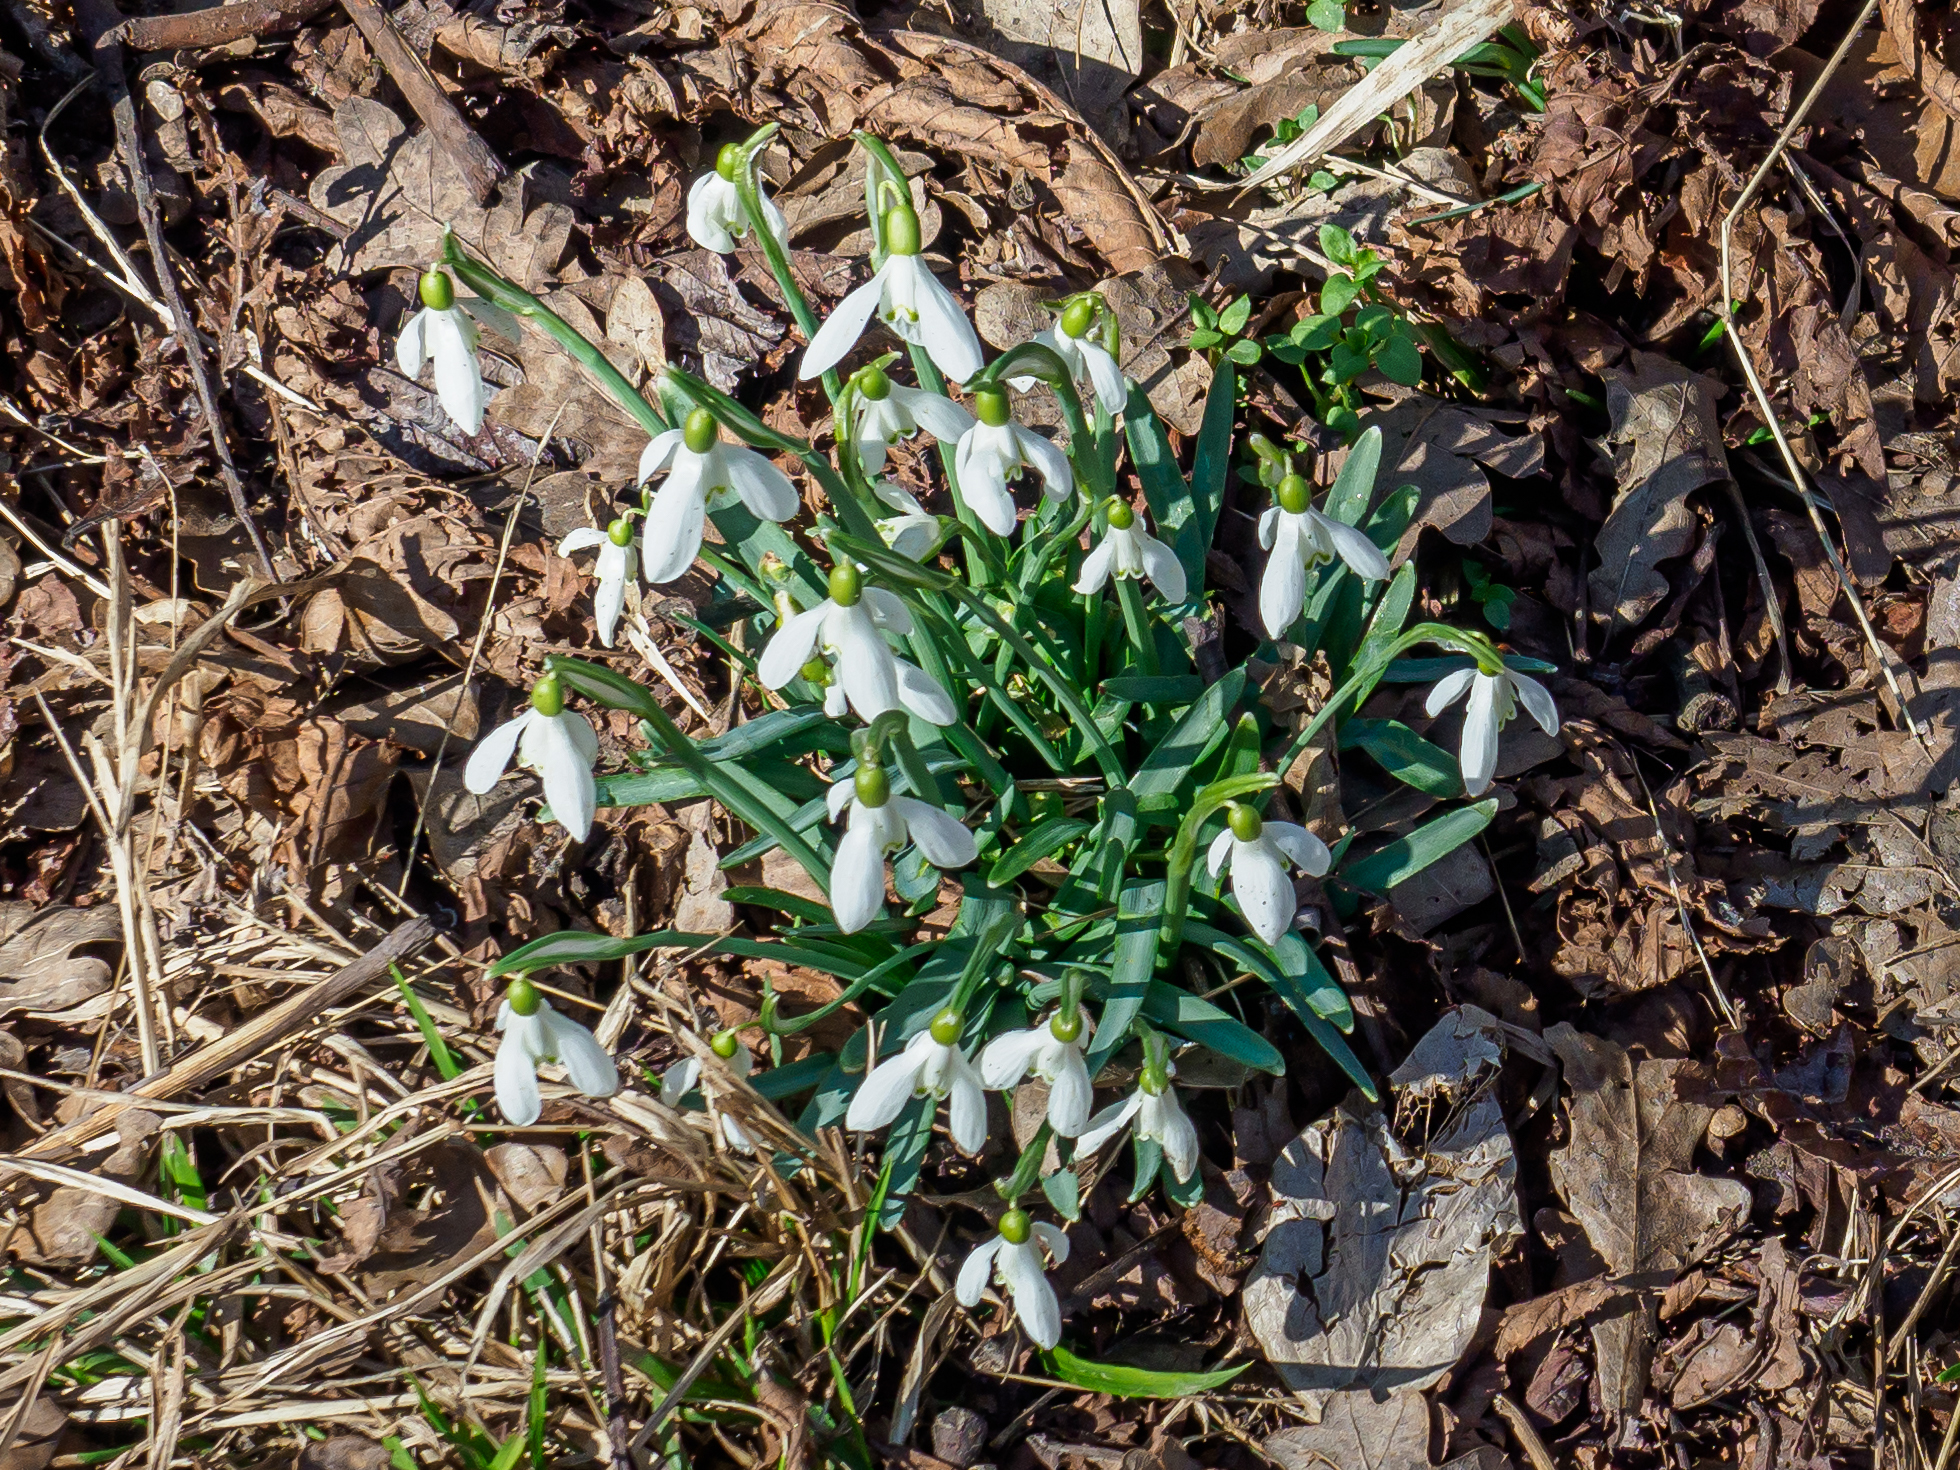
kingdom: Plantae
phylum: Tracheophyta
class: Liliopsida
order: Asparagales
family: Amaryllidaceae
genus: Galanthus
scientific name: Galanthus nivalis
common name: Snowdrop
